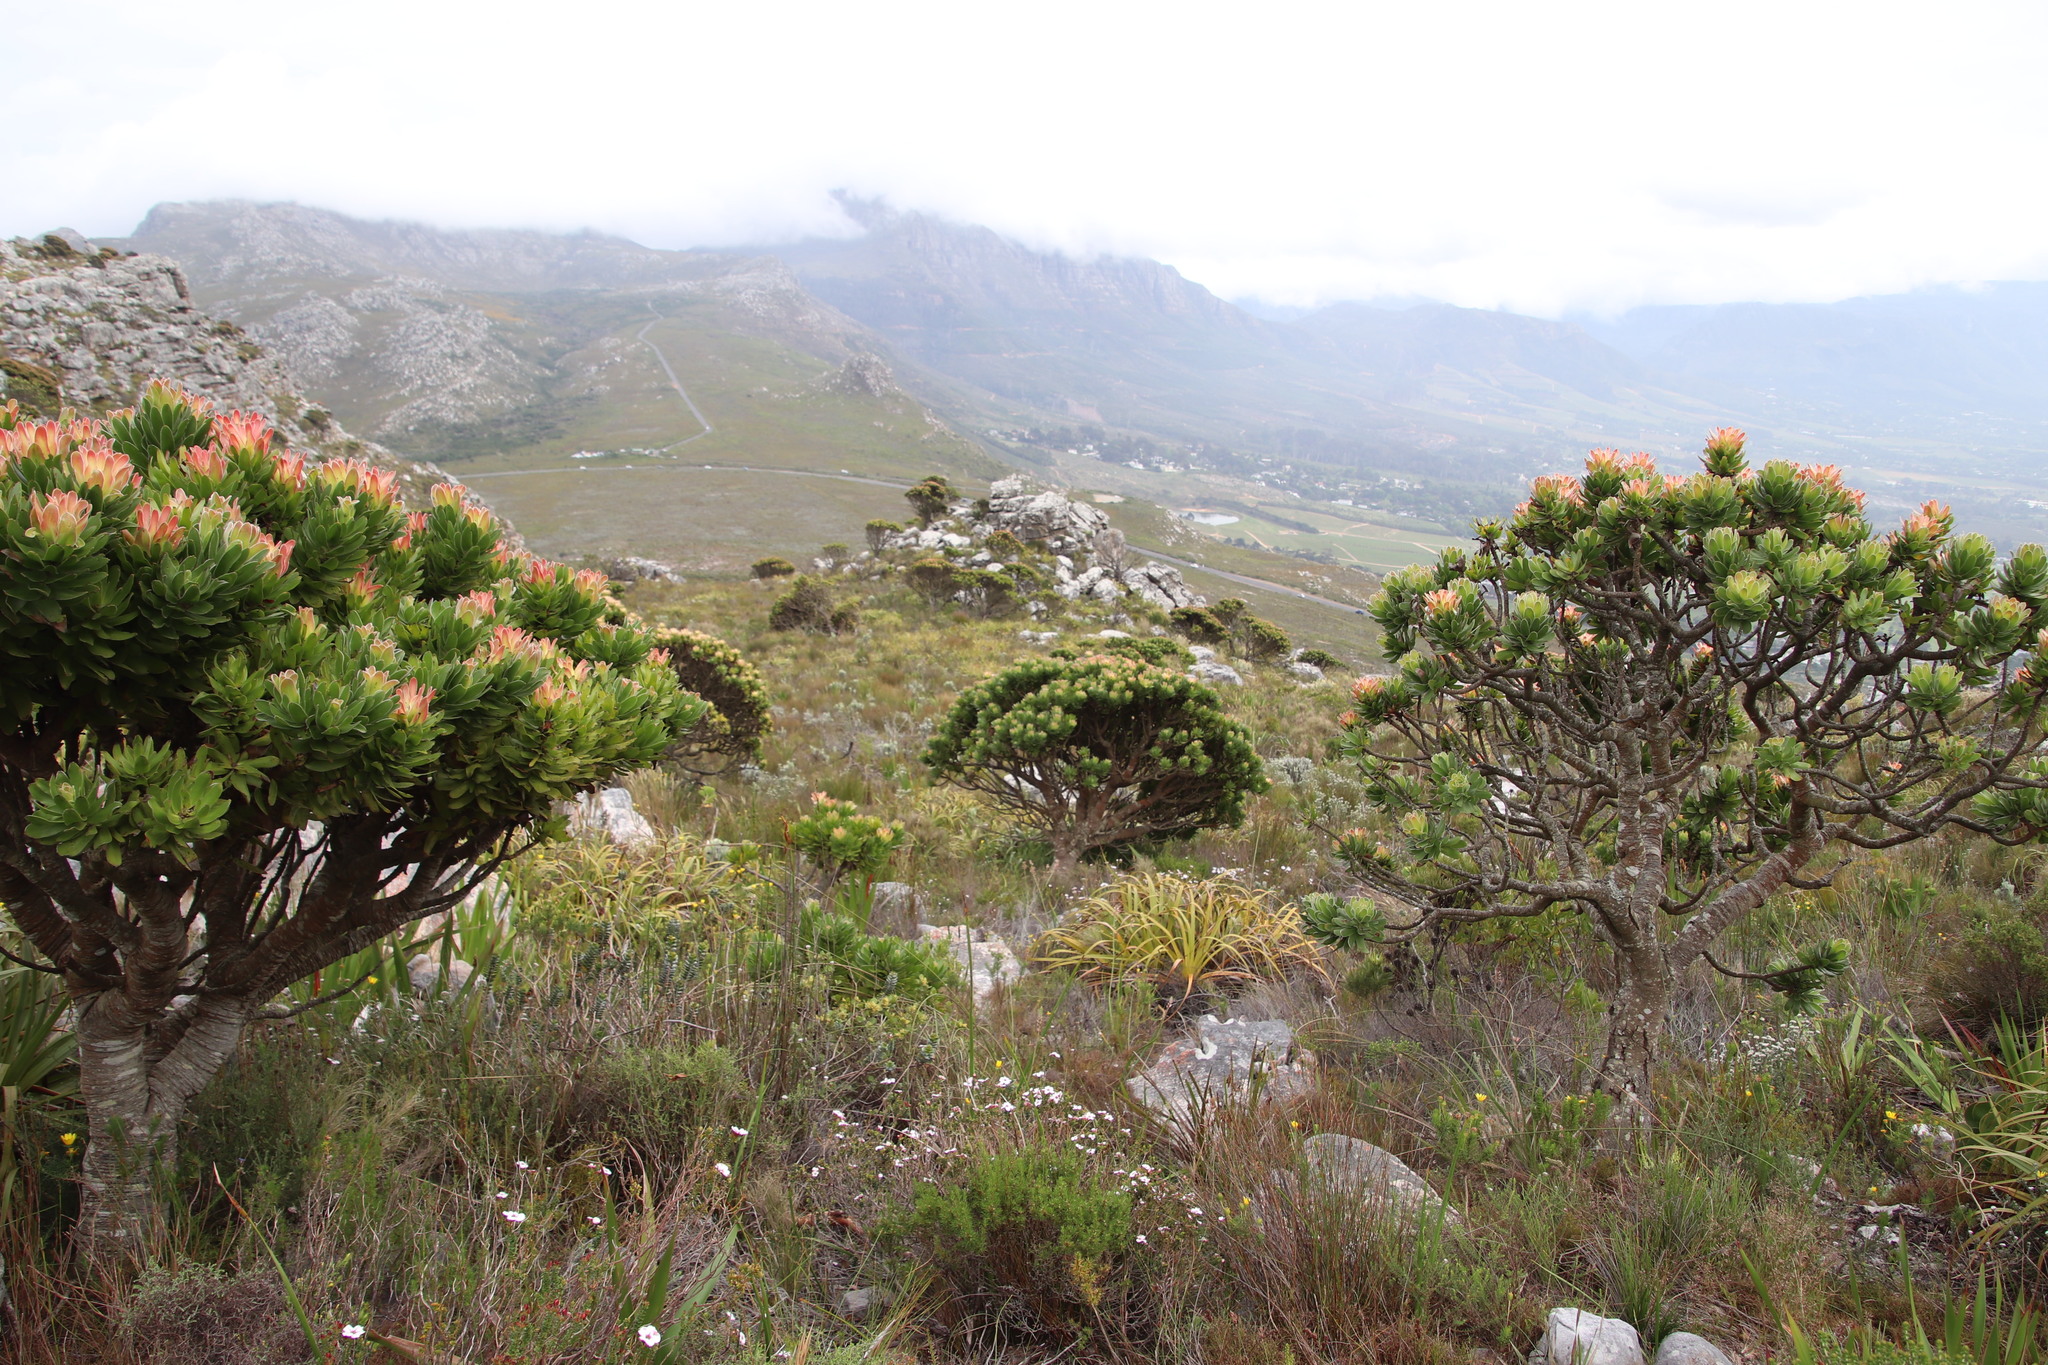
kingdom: Plantae
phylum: Tracheophyta
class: Magnoliopsida
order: Proteales
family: Proteaceae
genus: Mimetes
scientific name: Mimetes fimbriifolius
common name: Fringed bottlebrush
